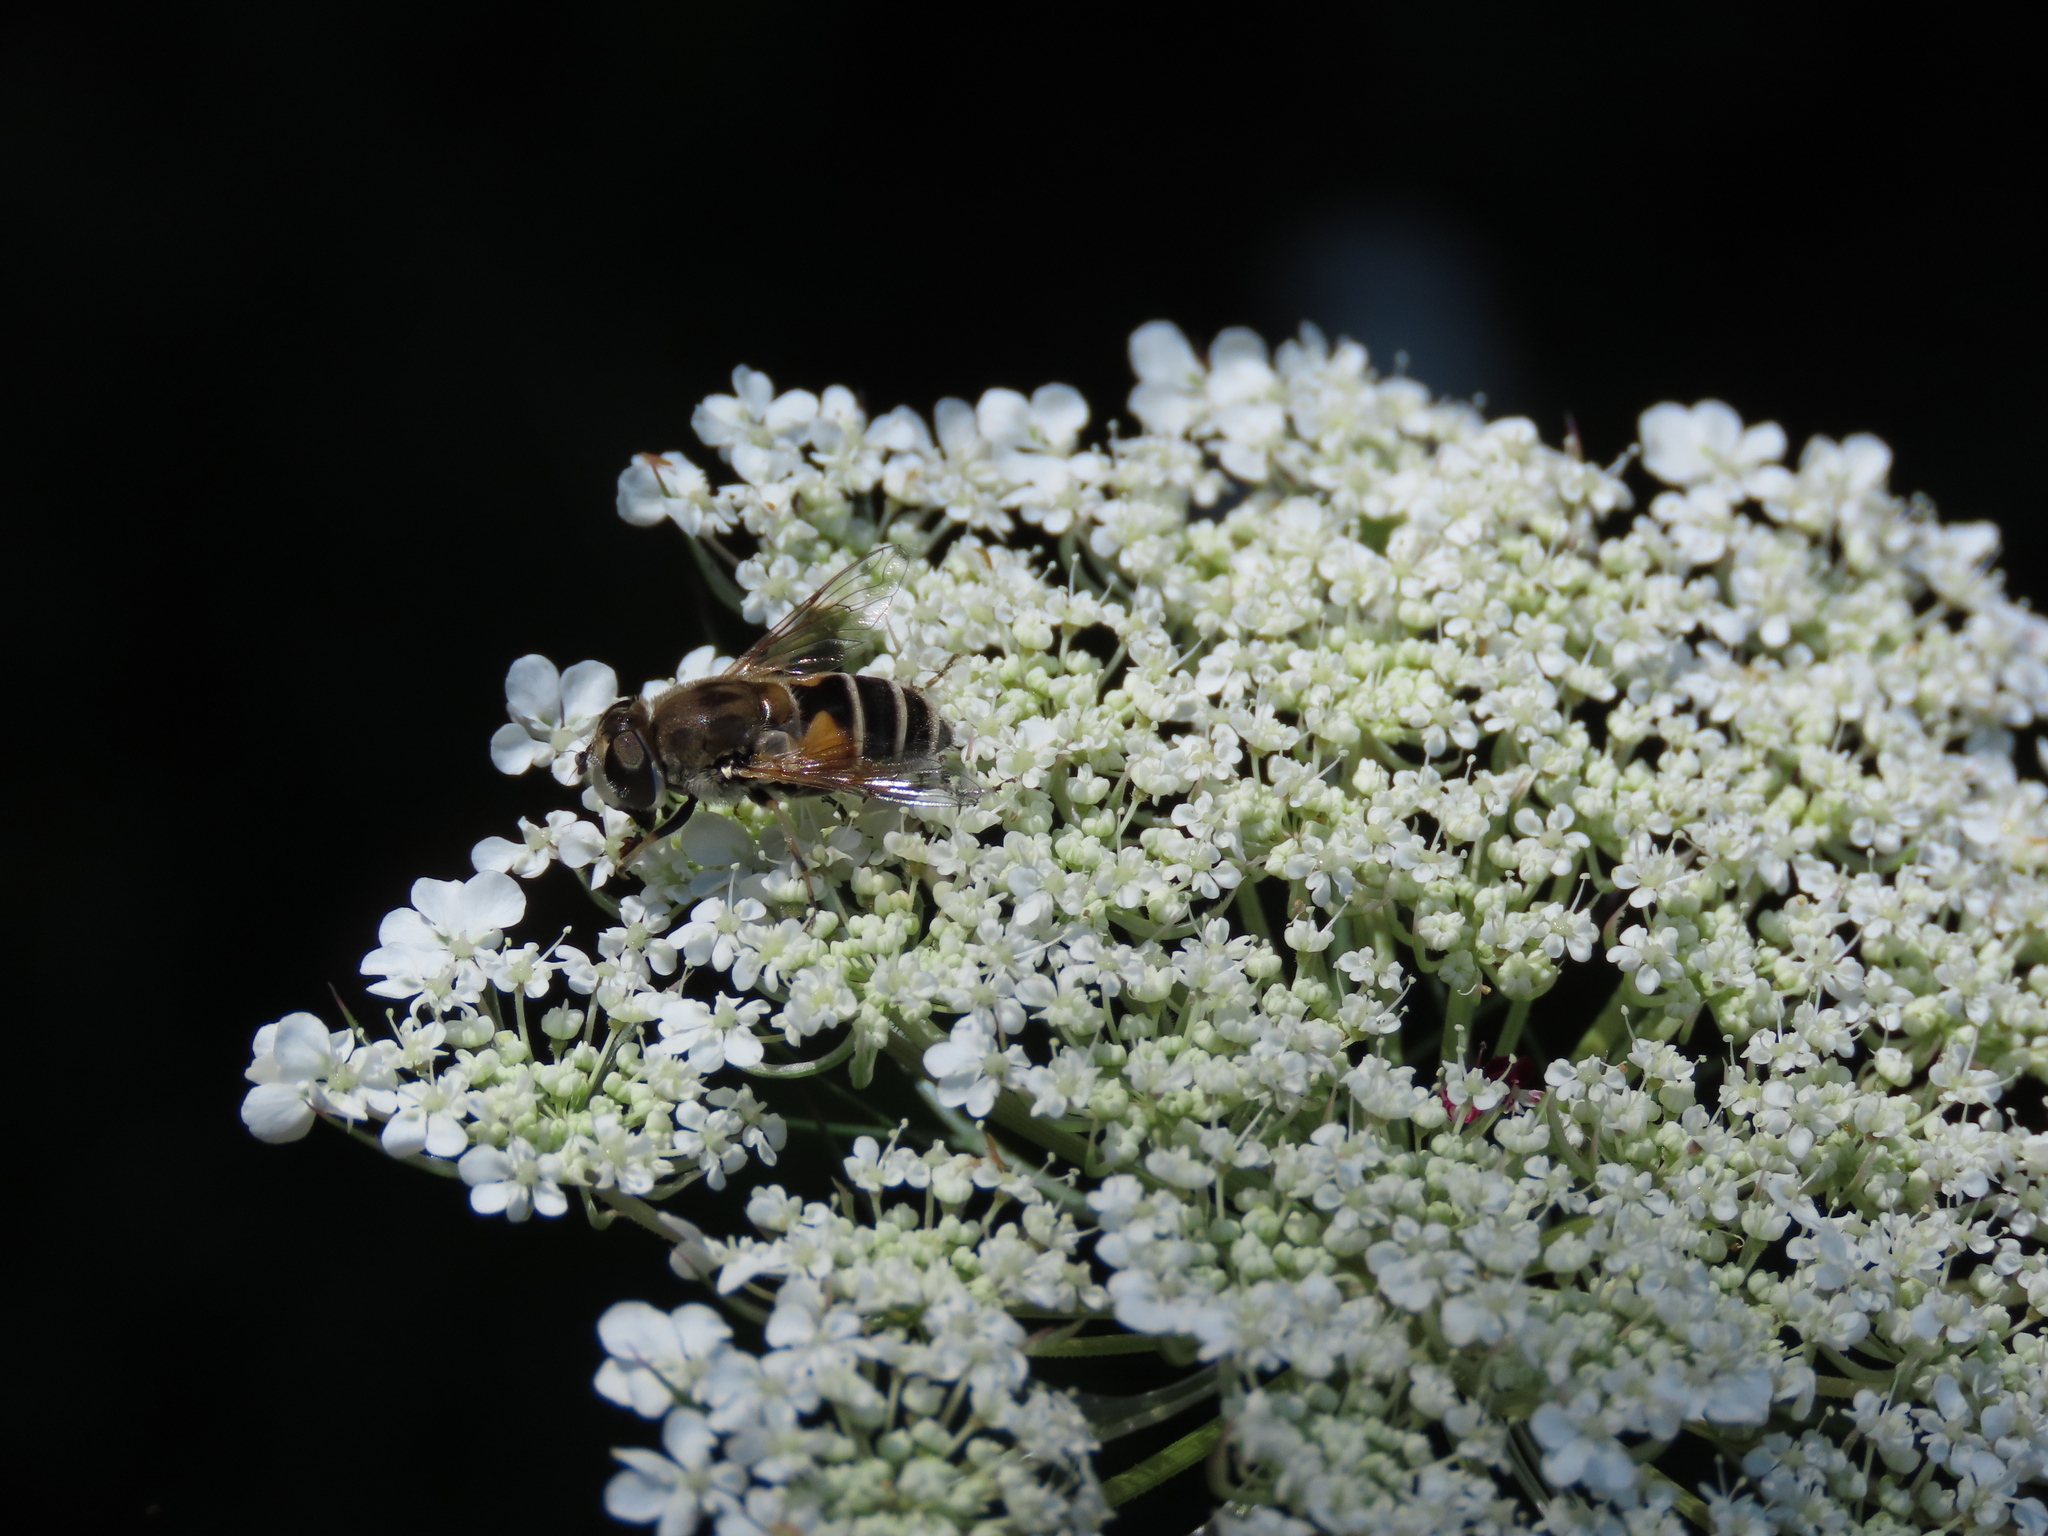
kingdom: Animalia
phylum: Arthropoda
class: Insecta
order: Diptera
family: Syrphidae
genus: Eristalis
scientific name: Eristalis arbustorum
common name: Hover fly
